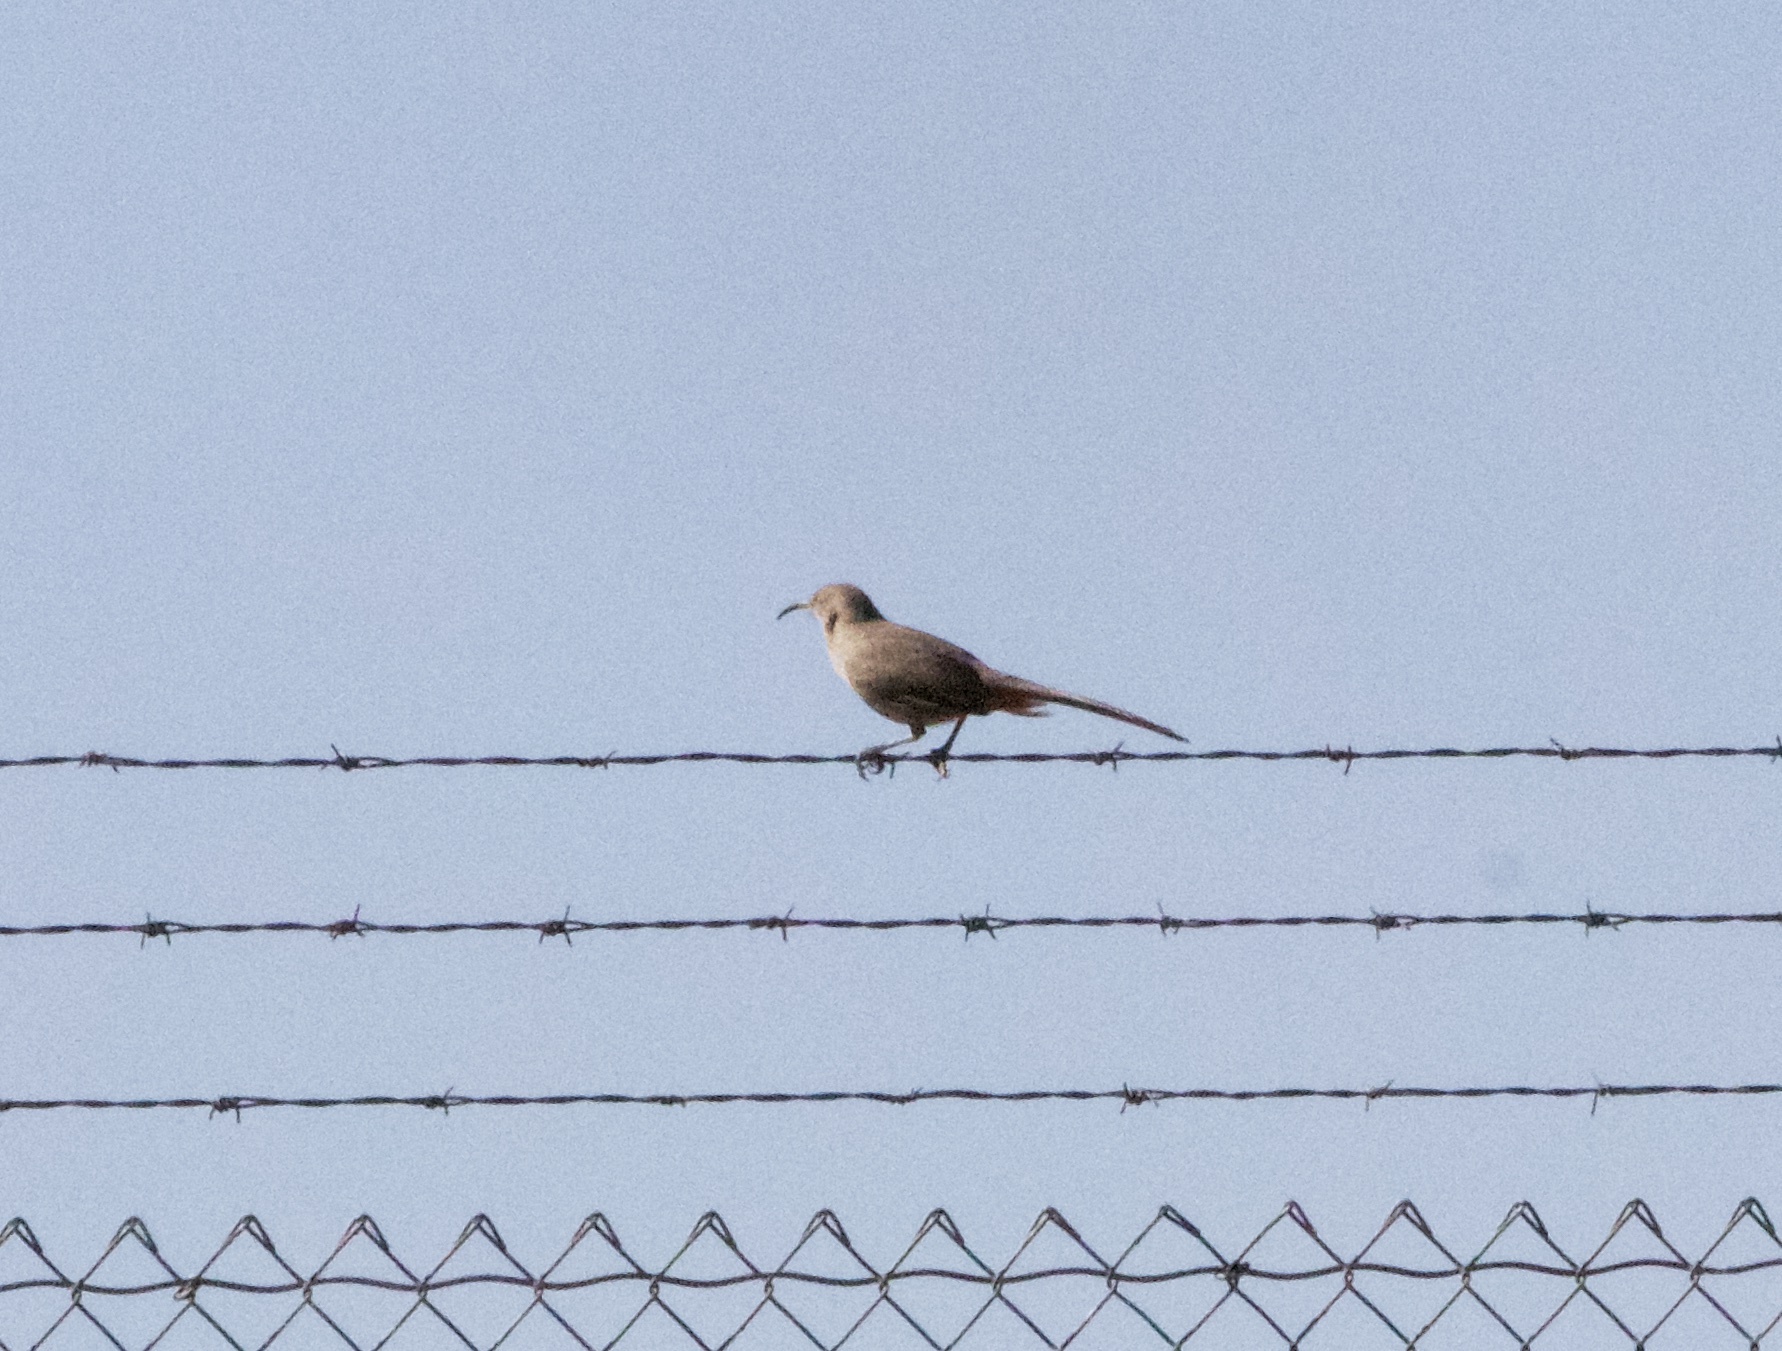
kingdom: Animalia
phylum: Chordata
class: Aves
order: Passeriformes
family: Mimidae
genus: Toxostoma
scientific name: Toxostoma crissale
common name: Crissal thrasher
